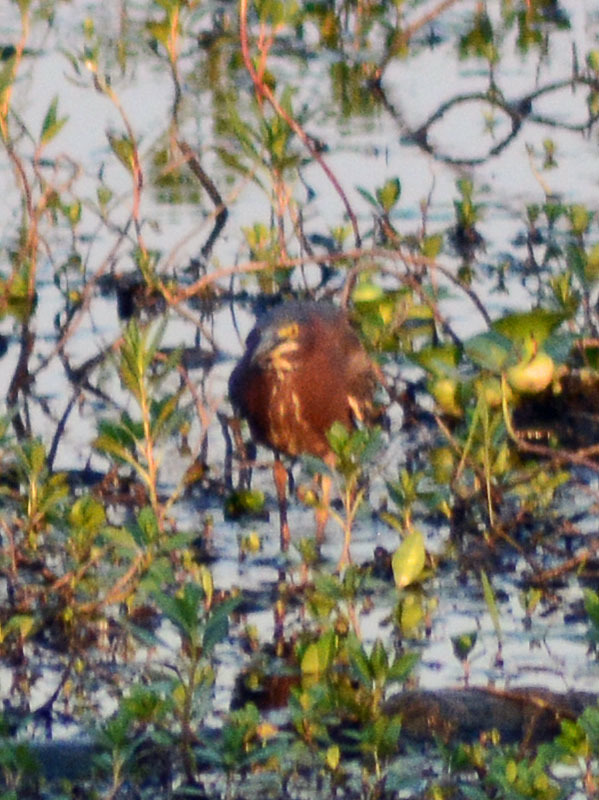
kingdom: Animalia
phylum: Chordata
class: Aves
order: Pelecaniformes
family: Ardeidae
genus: Butorides
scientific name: Butorides virescens
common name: Green heron
